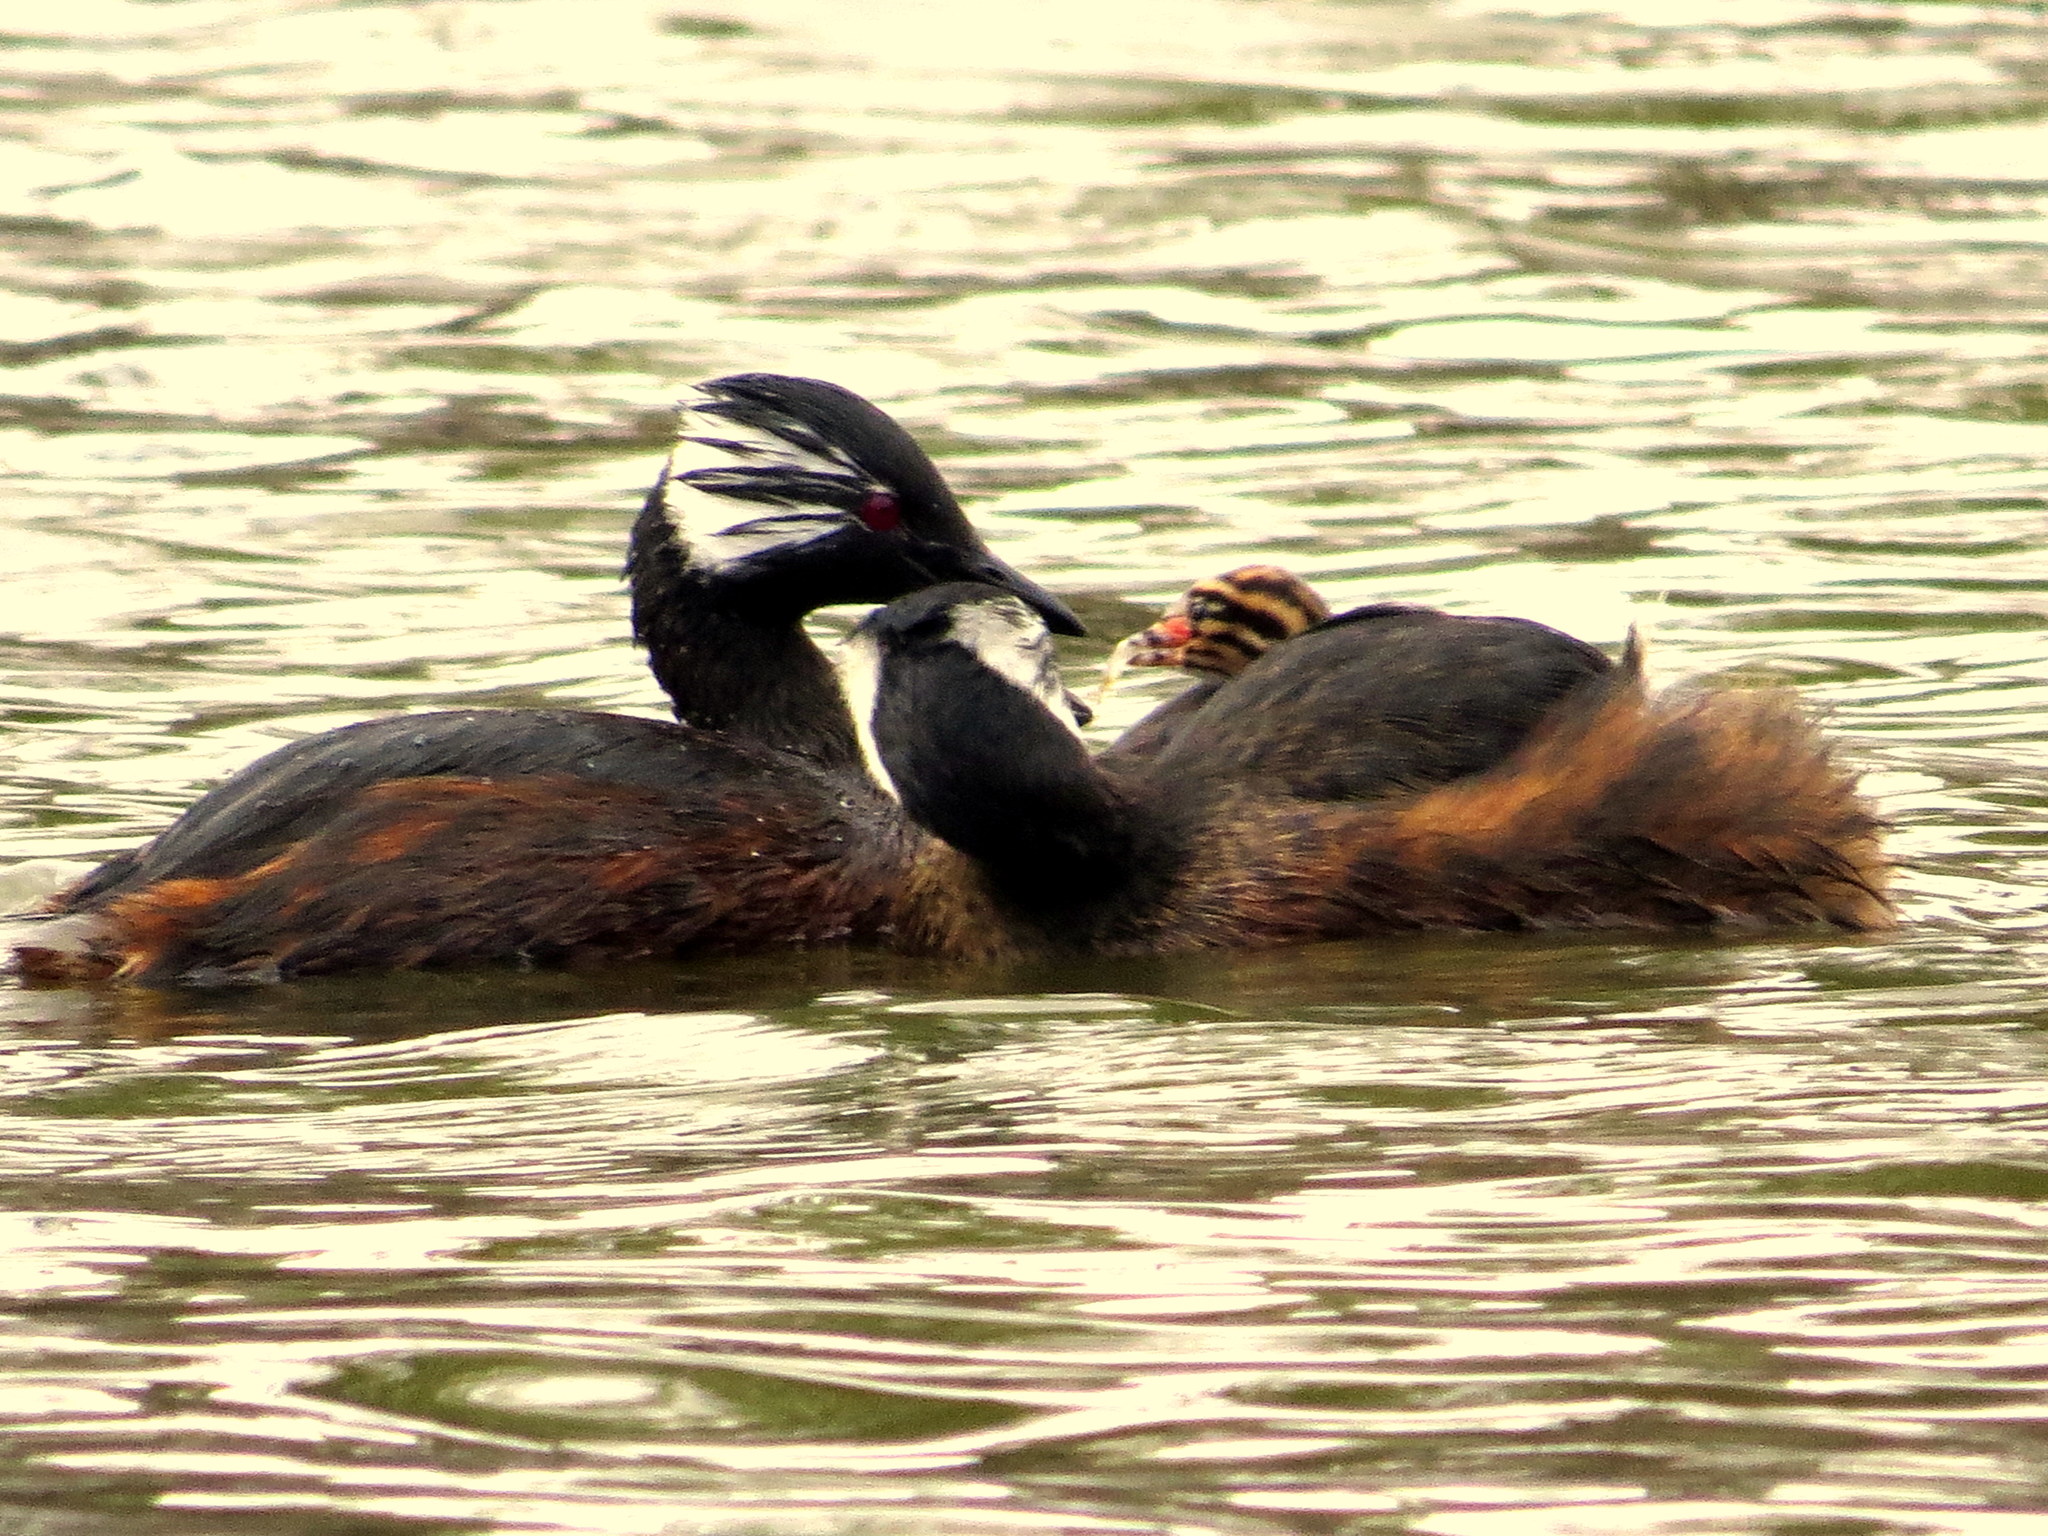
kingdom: Animalia
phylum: Chordata
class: Aves
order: Podicipediformes
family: Podicipedidae
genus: Rollandia
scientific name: Rollandia rolland
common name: White-tufted grebe
